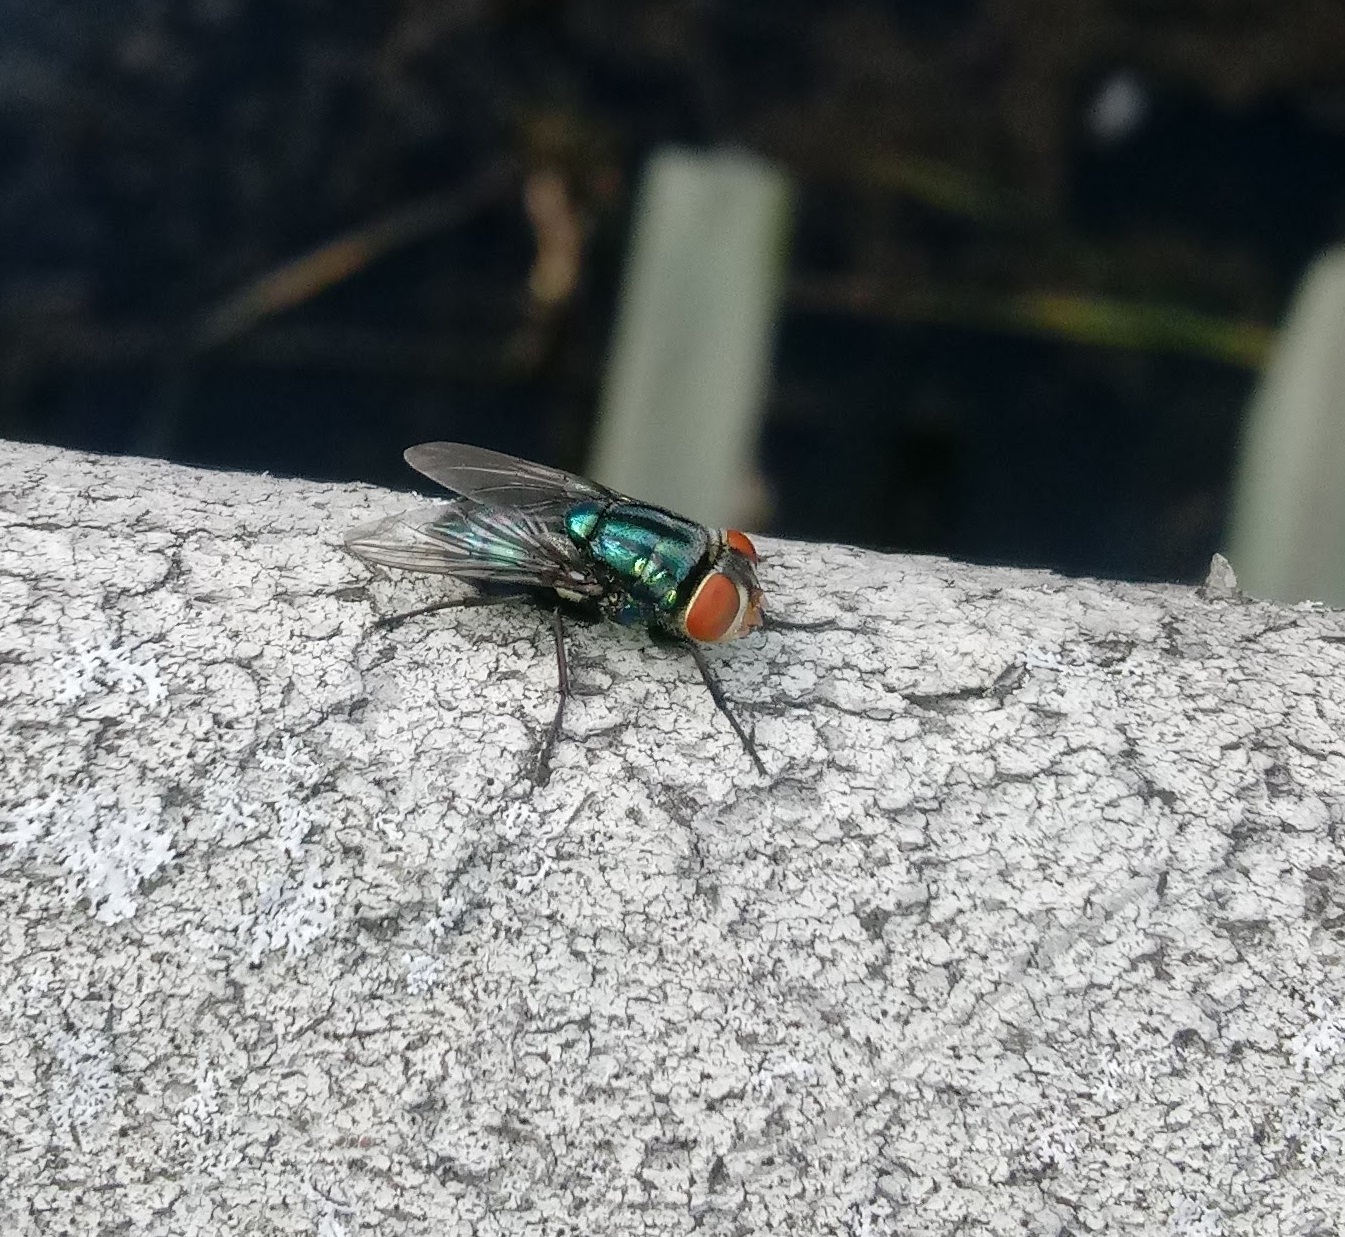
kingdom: Animalia
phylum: Arthropoda
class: Insecta
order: Diptera
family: Calliphoridae
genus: Cochliomyia
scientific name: Cochliomyia macellaria
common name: Secondary screwworm
